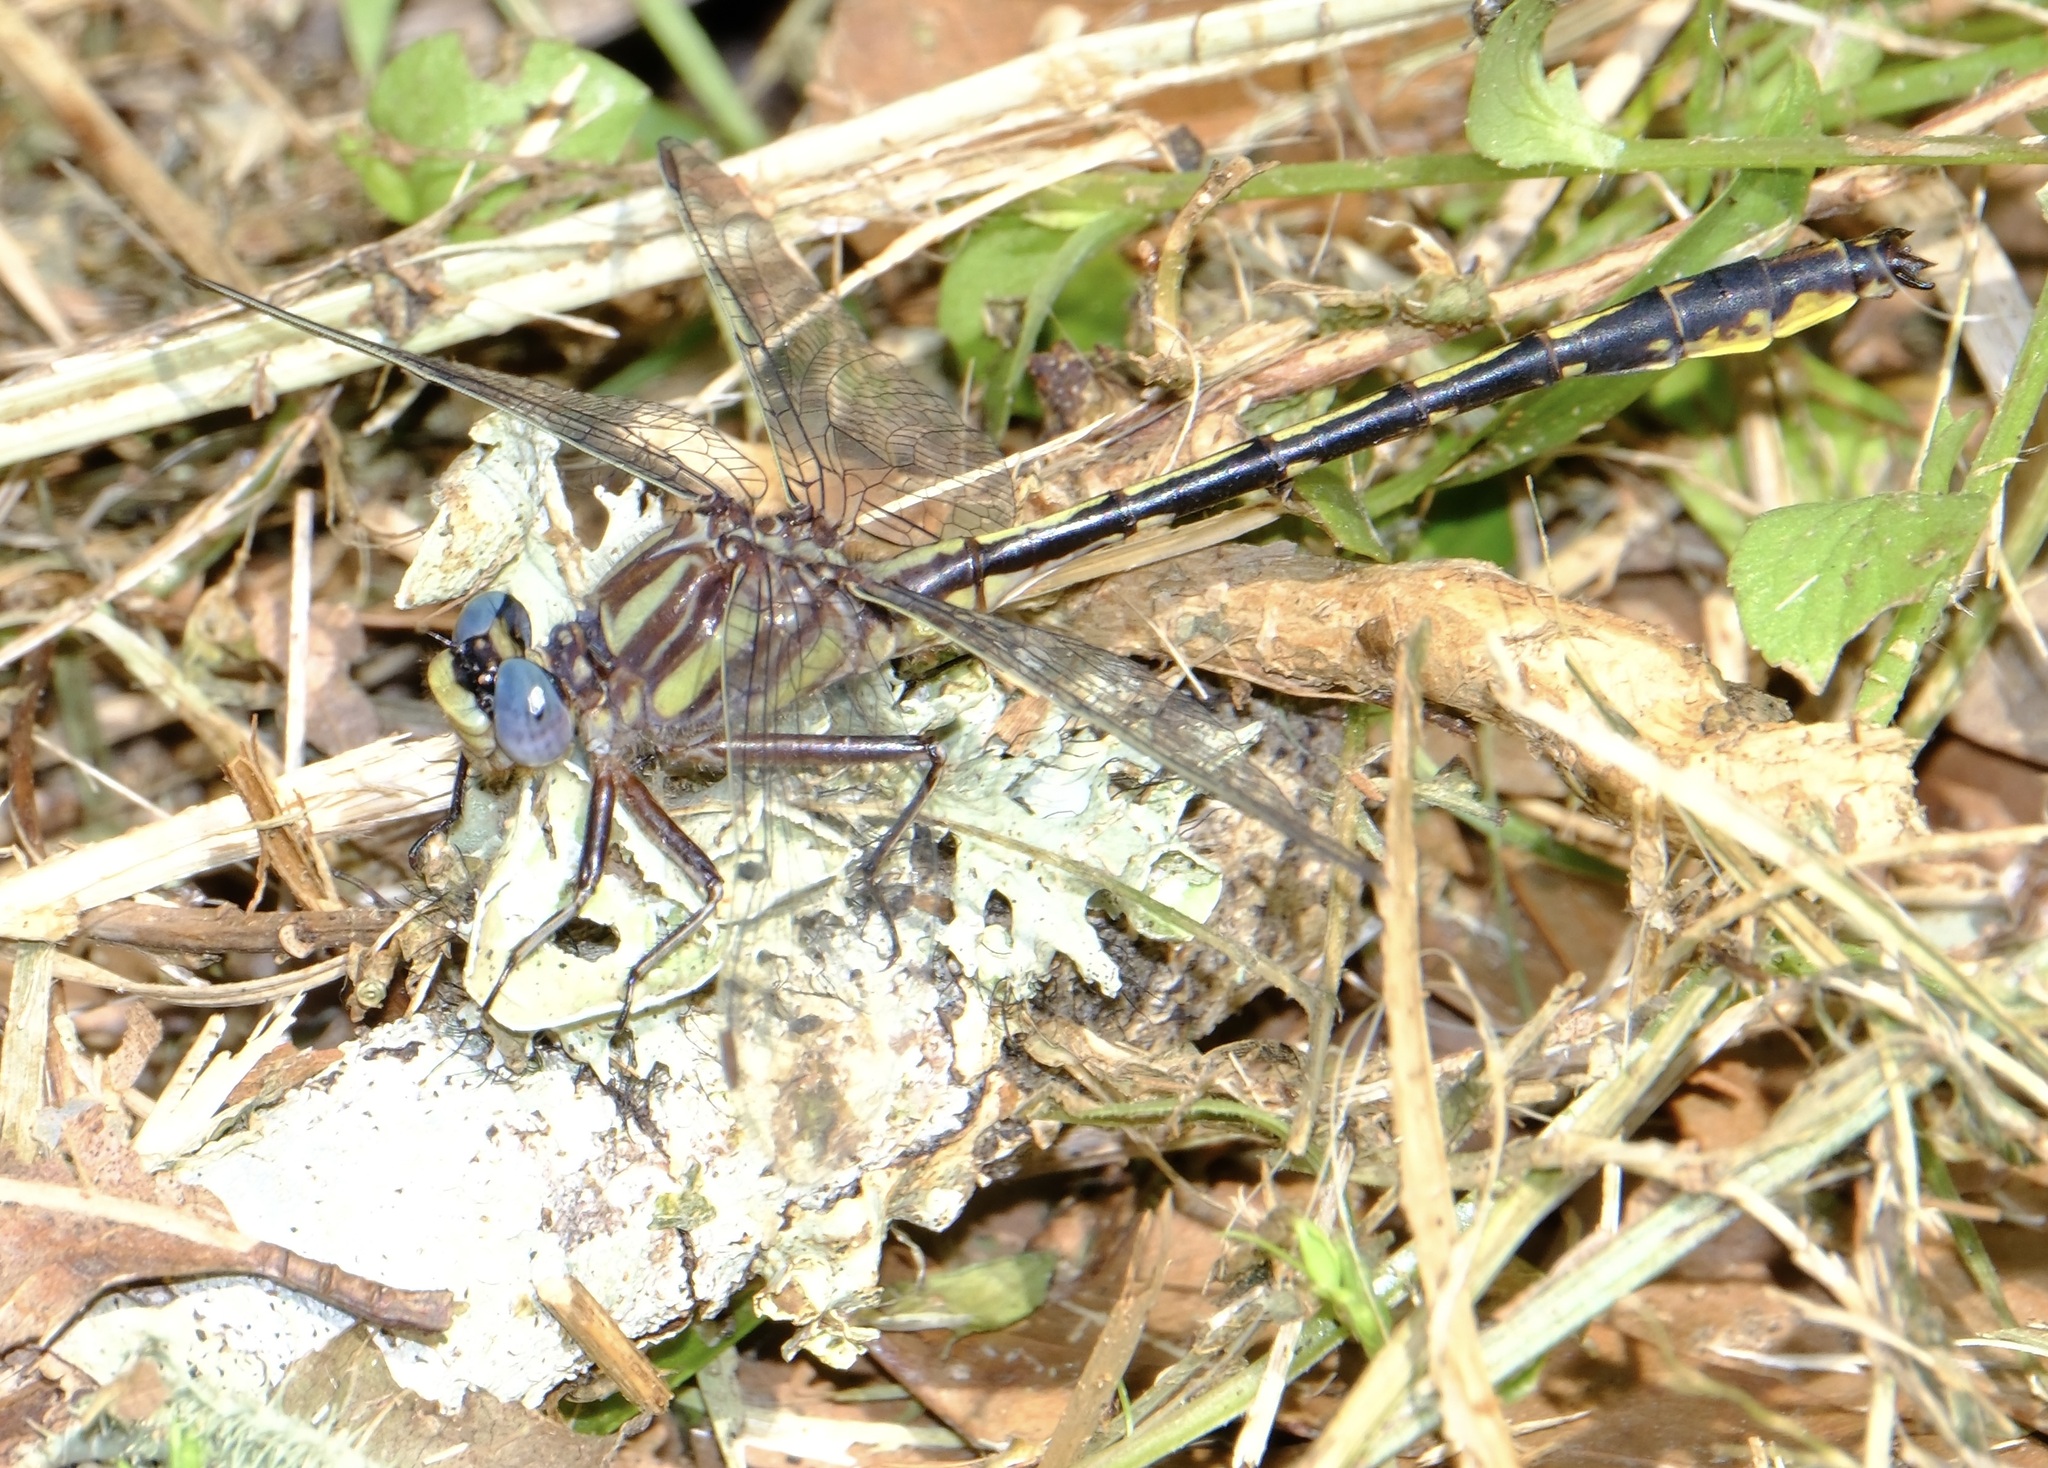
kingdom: Animalia
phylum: Arthropoda
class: Insecta
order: Odonata
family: Gomphidae
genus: Phanogomphus
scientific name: Phanogomphus oklahomensis
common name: Oklahoma clubtail
